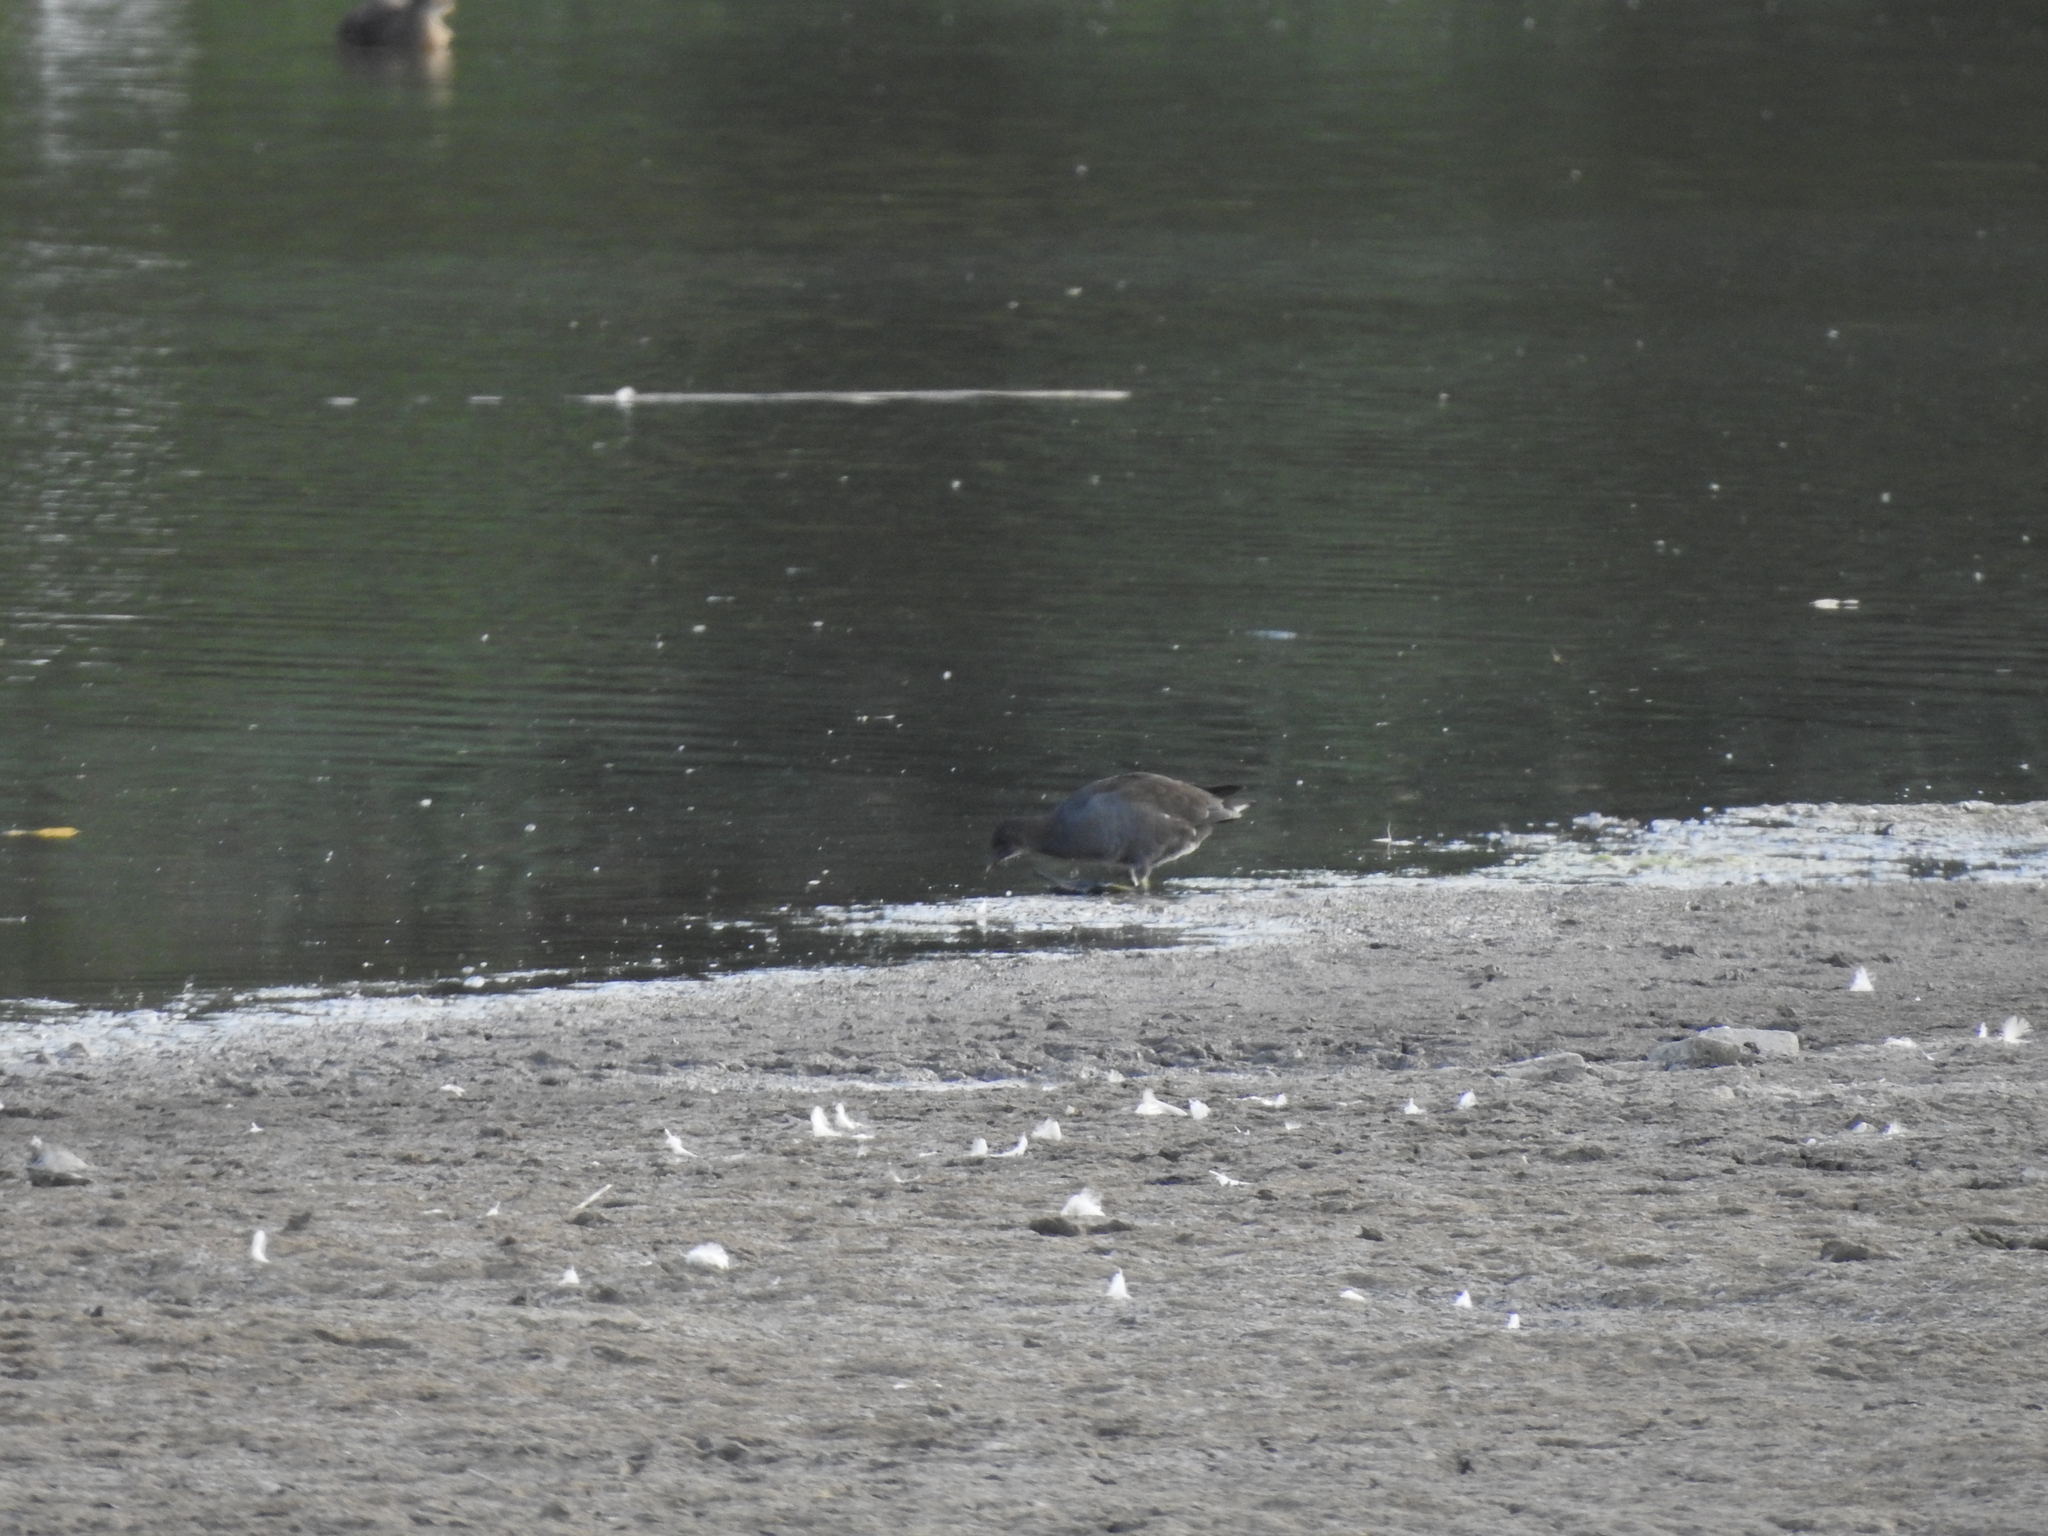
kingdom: Animalia
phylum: Chordata
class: Aves
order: Gruiformes
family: Rallidae
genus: Gallinula
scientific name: Gallinula chloropus
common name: Common moorhen
